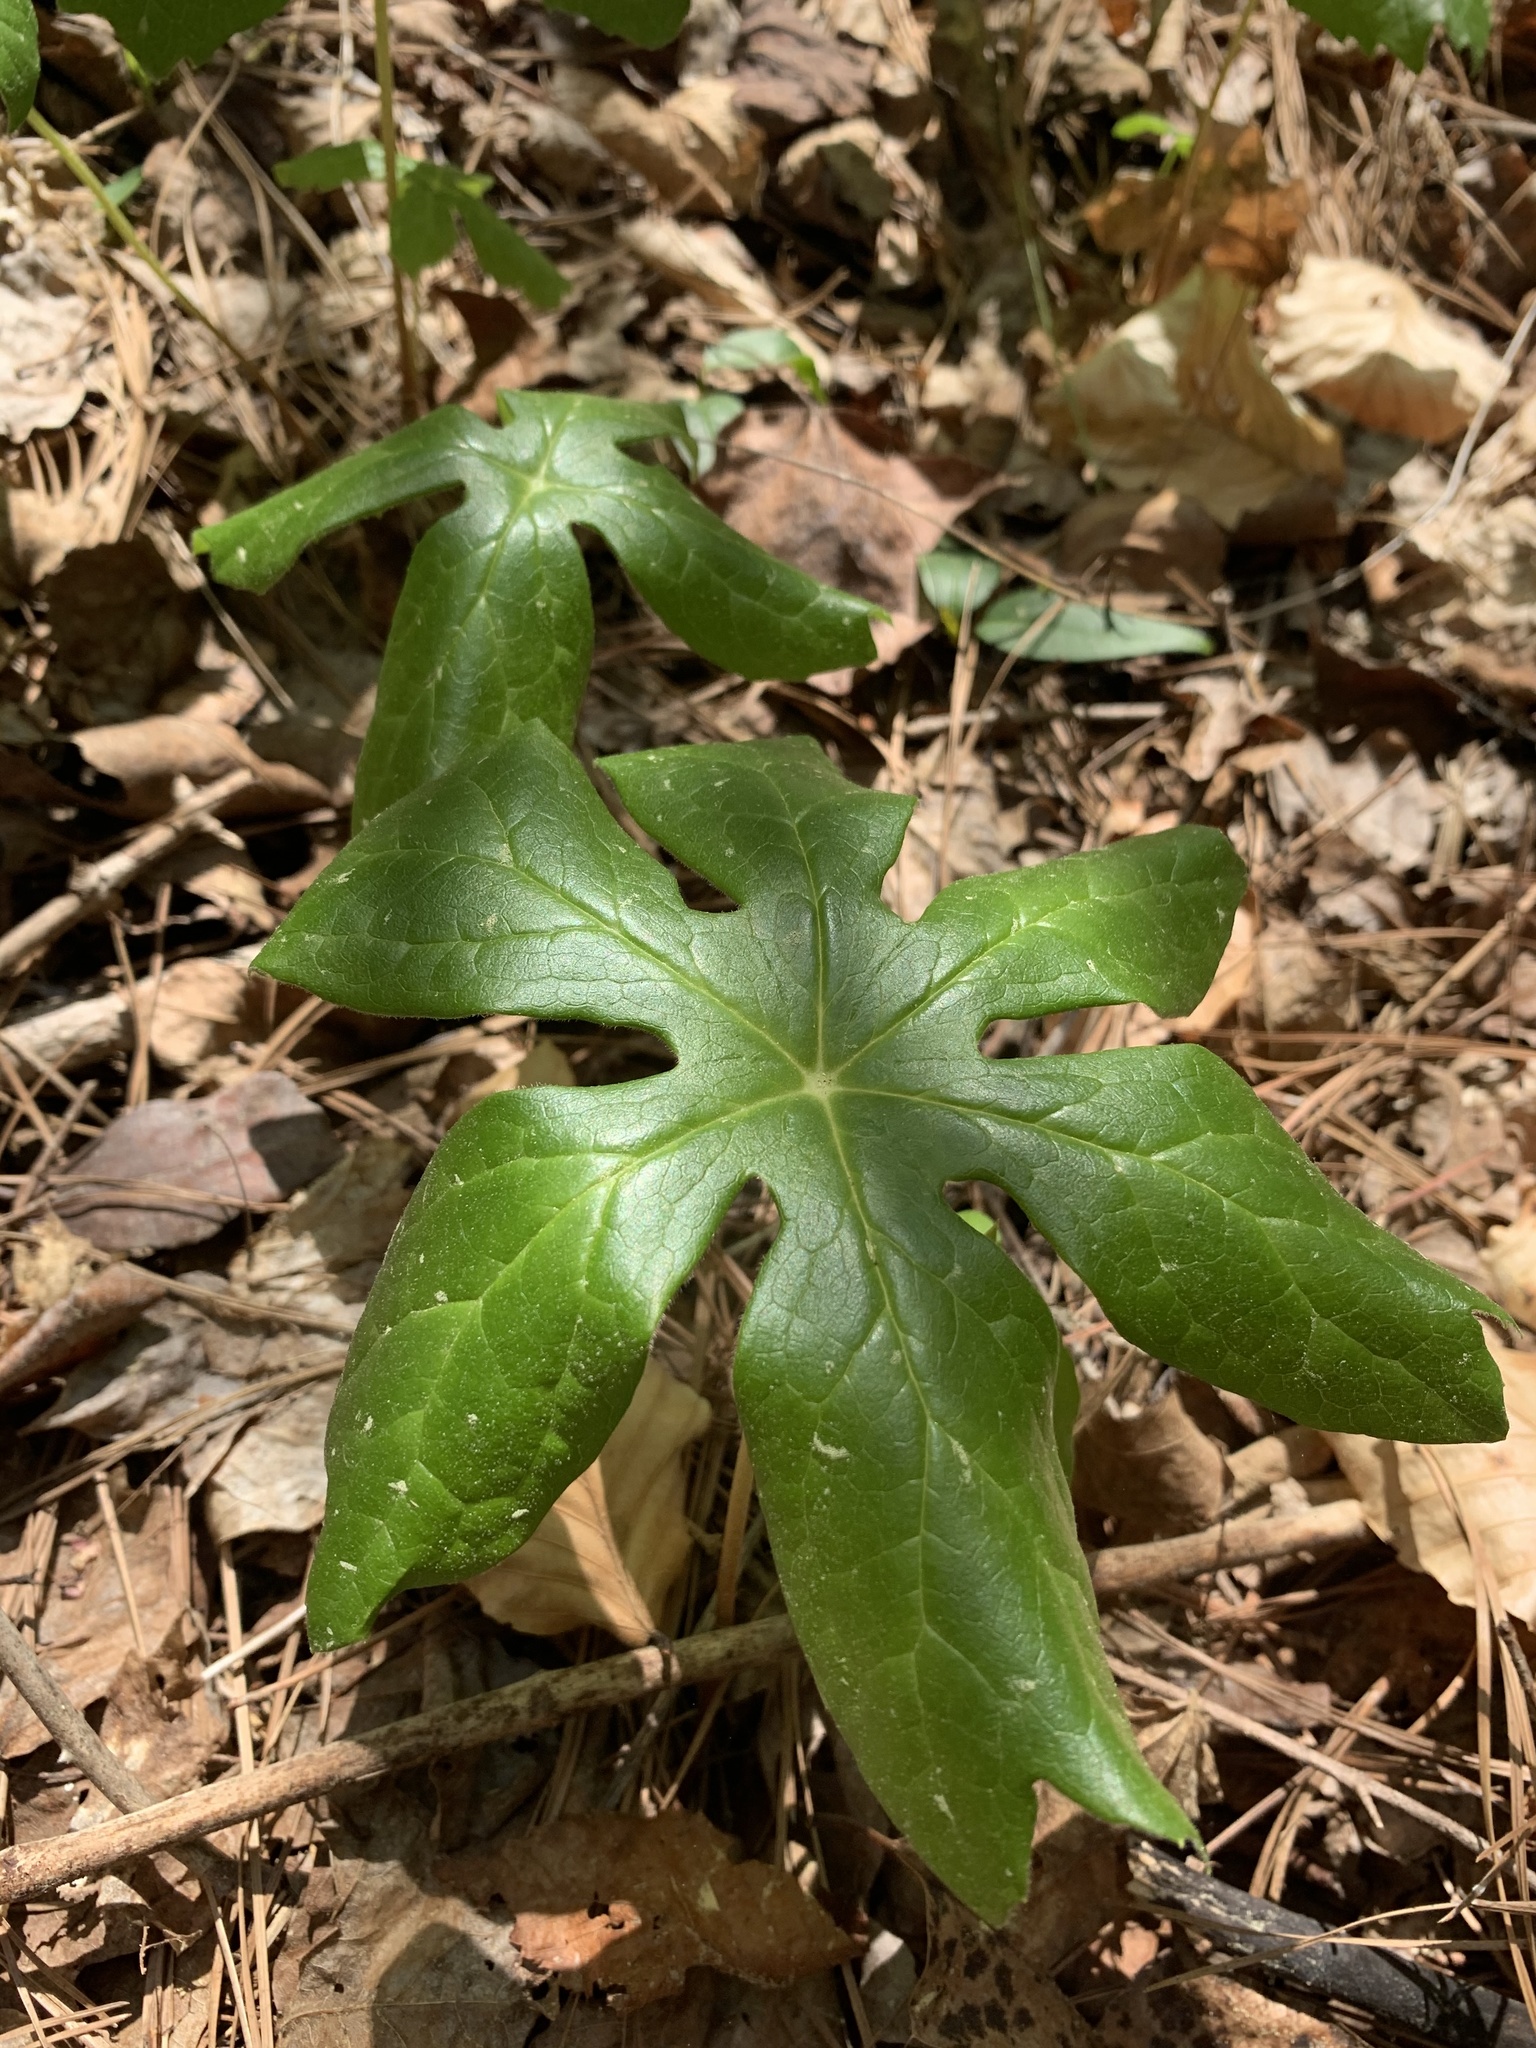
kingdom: Plantae
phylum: Tracheophyta
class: Magnoliopsida
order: Ranunculales
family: Berberidaceae
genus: Podophyllum
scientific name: Podophyllum peltatum
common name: Wild mandrake
